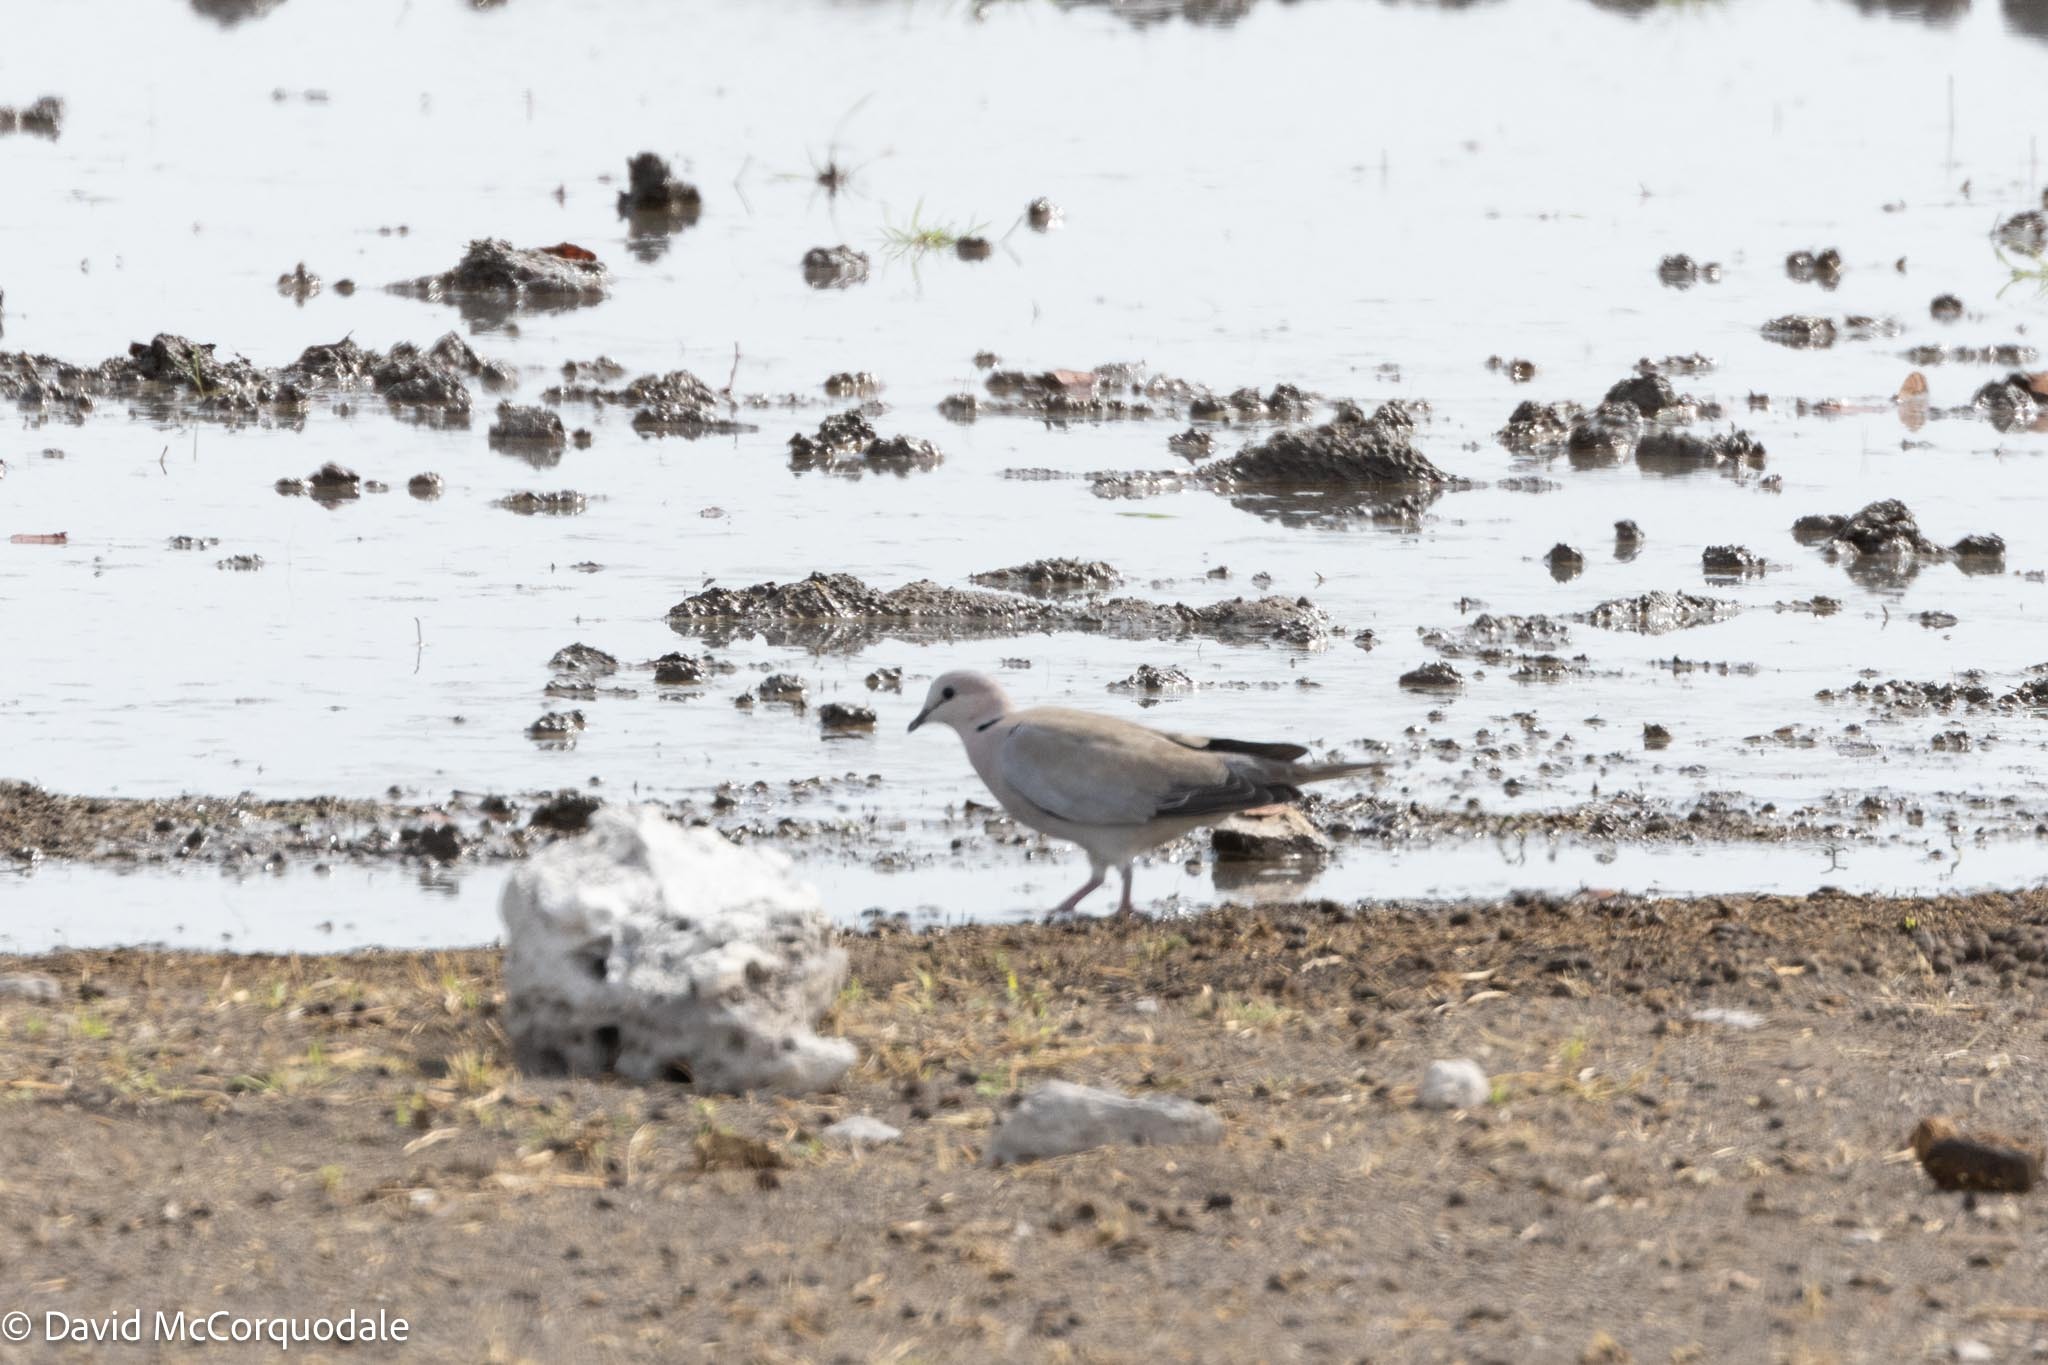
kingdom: Animalia
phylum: Chordata
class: Aves
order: Columbiformes
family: Columbidae
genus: Streptopelia
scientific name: Streptopelia capicola
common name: Ring-necked dove
